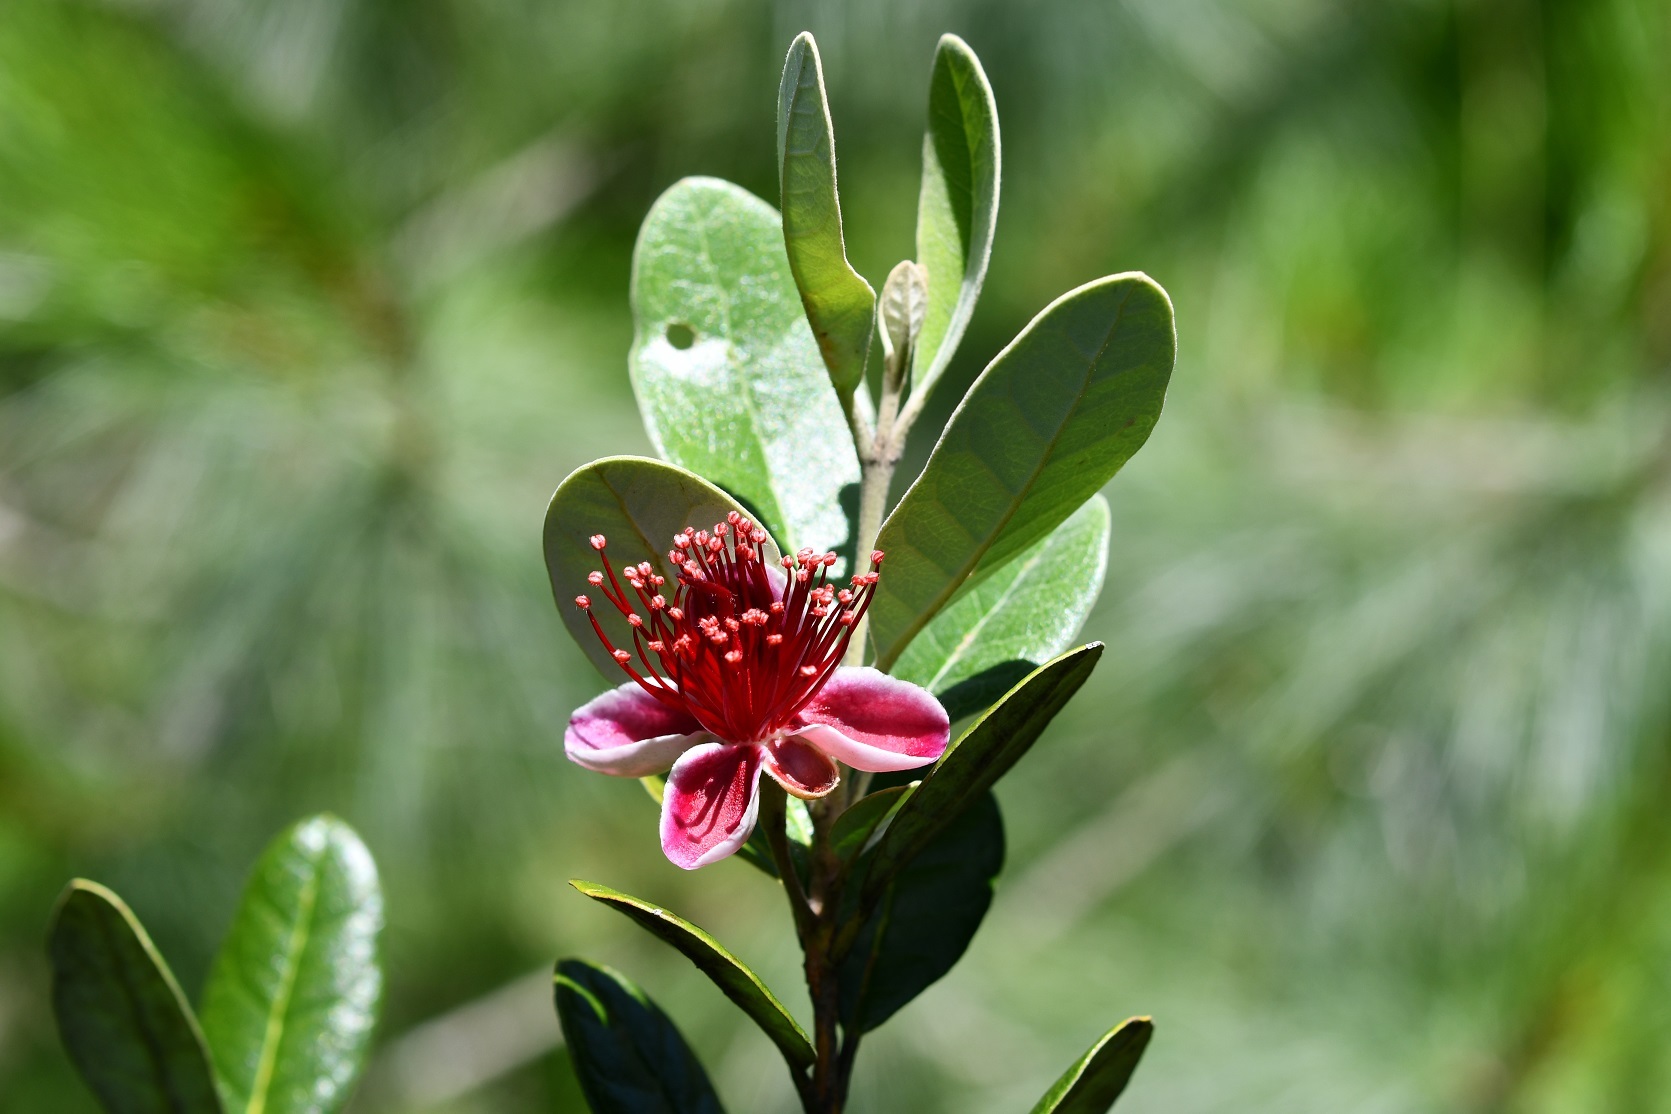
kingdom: Plantae
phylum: Tracheophyta
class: Magnoliopsida
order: Myrtales
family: Myrtaceae
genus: Feijoa
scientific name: Feijoa sellowiana
